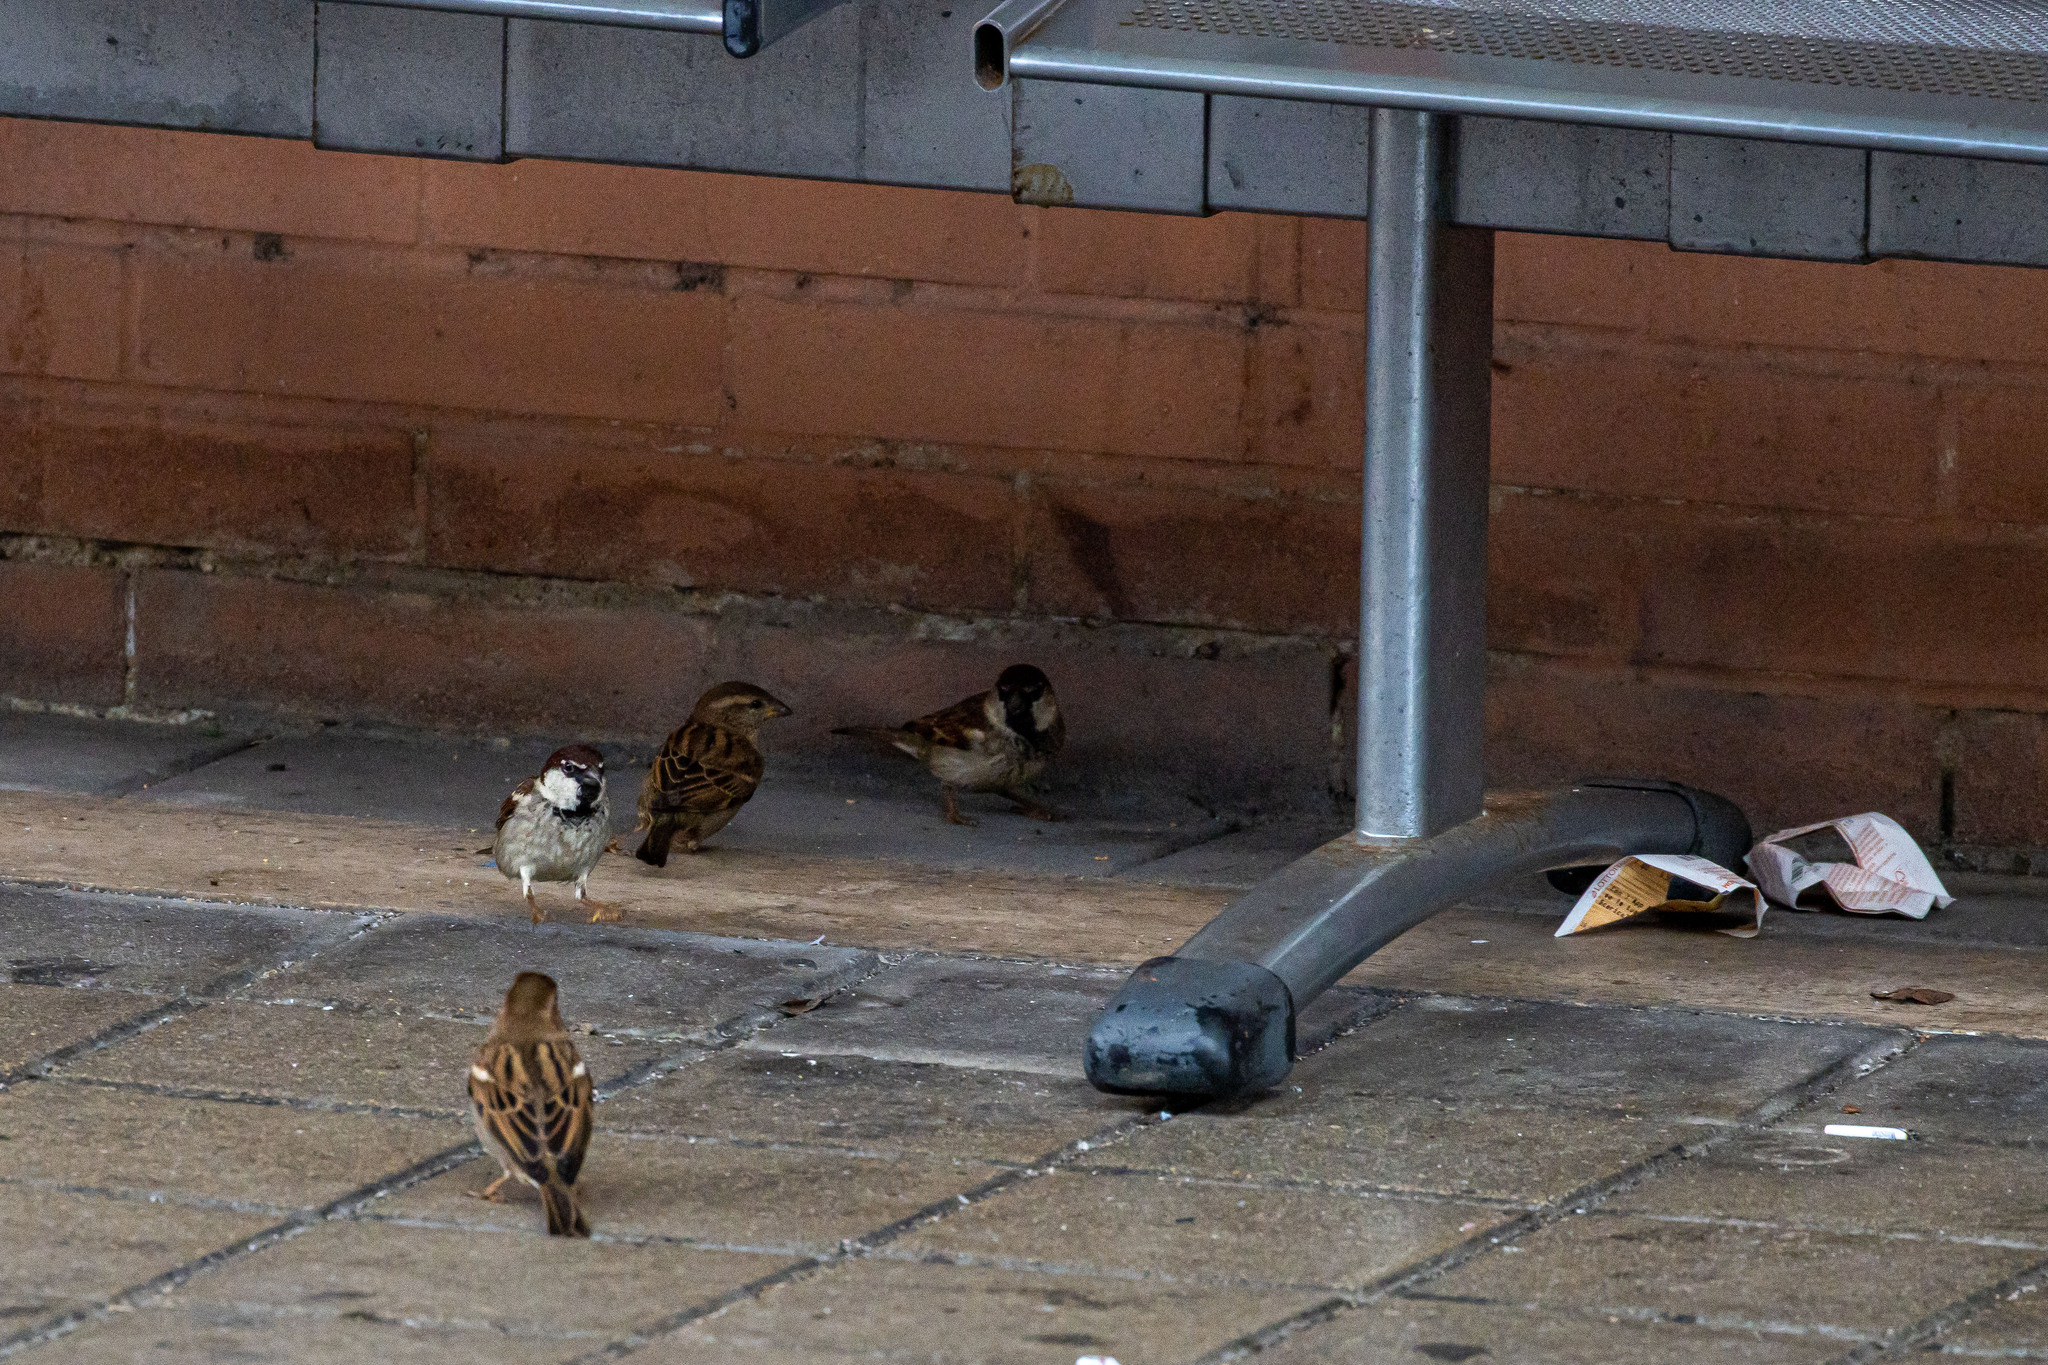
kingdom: Animalia
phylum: Chordata
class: Aves
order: Passeriformes
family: Passeridae
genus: Passer
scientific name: Passer italiae
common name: Italian sparrow
